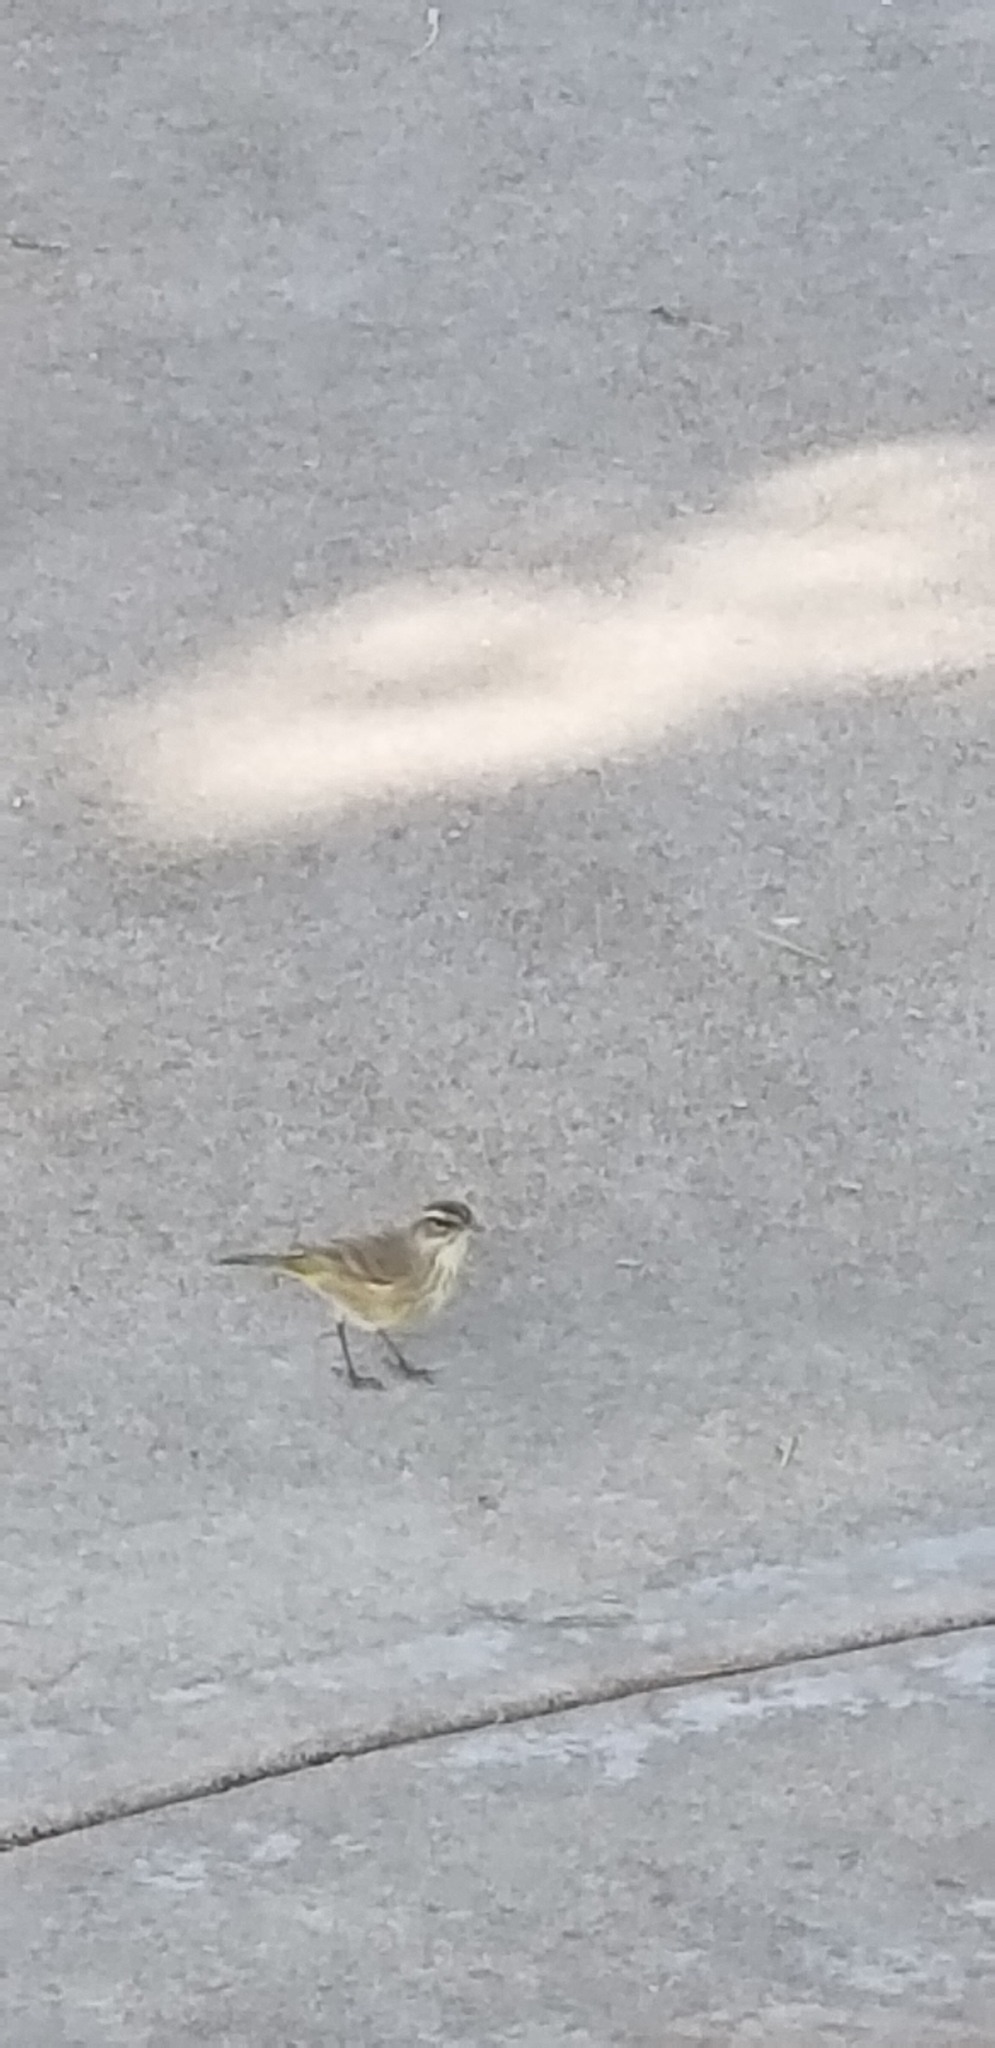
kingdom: Animalia
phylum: Chordata
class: Aves
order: Passeriformes
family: Parulidae
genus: Setophaga
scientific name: Setophaga palmarum
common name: Palm warbler
